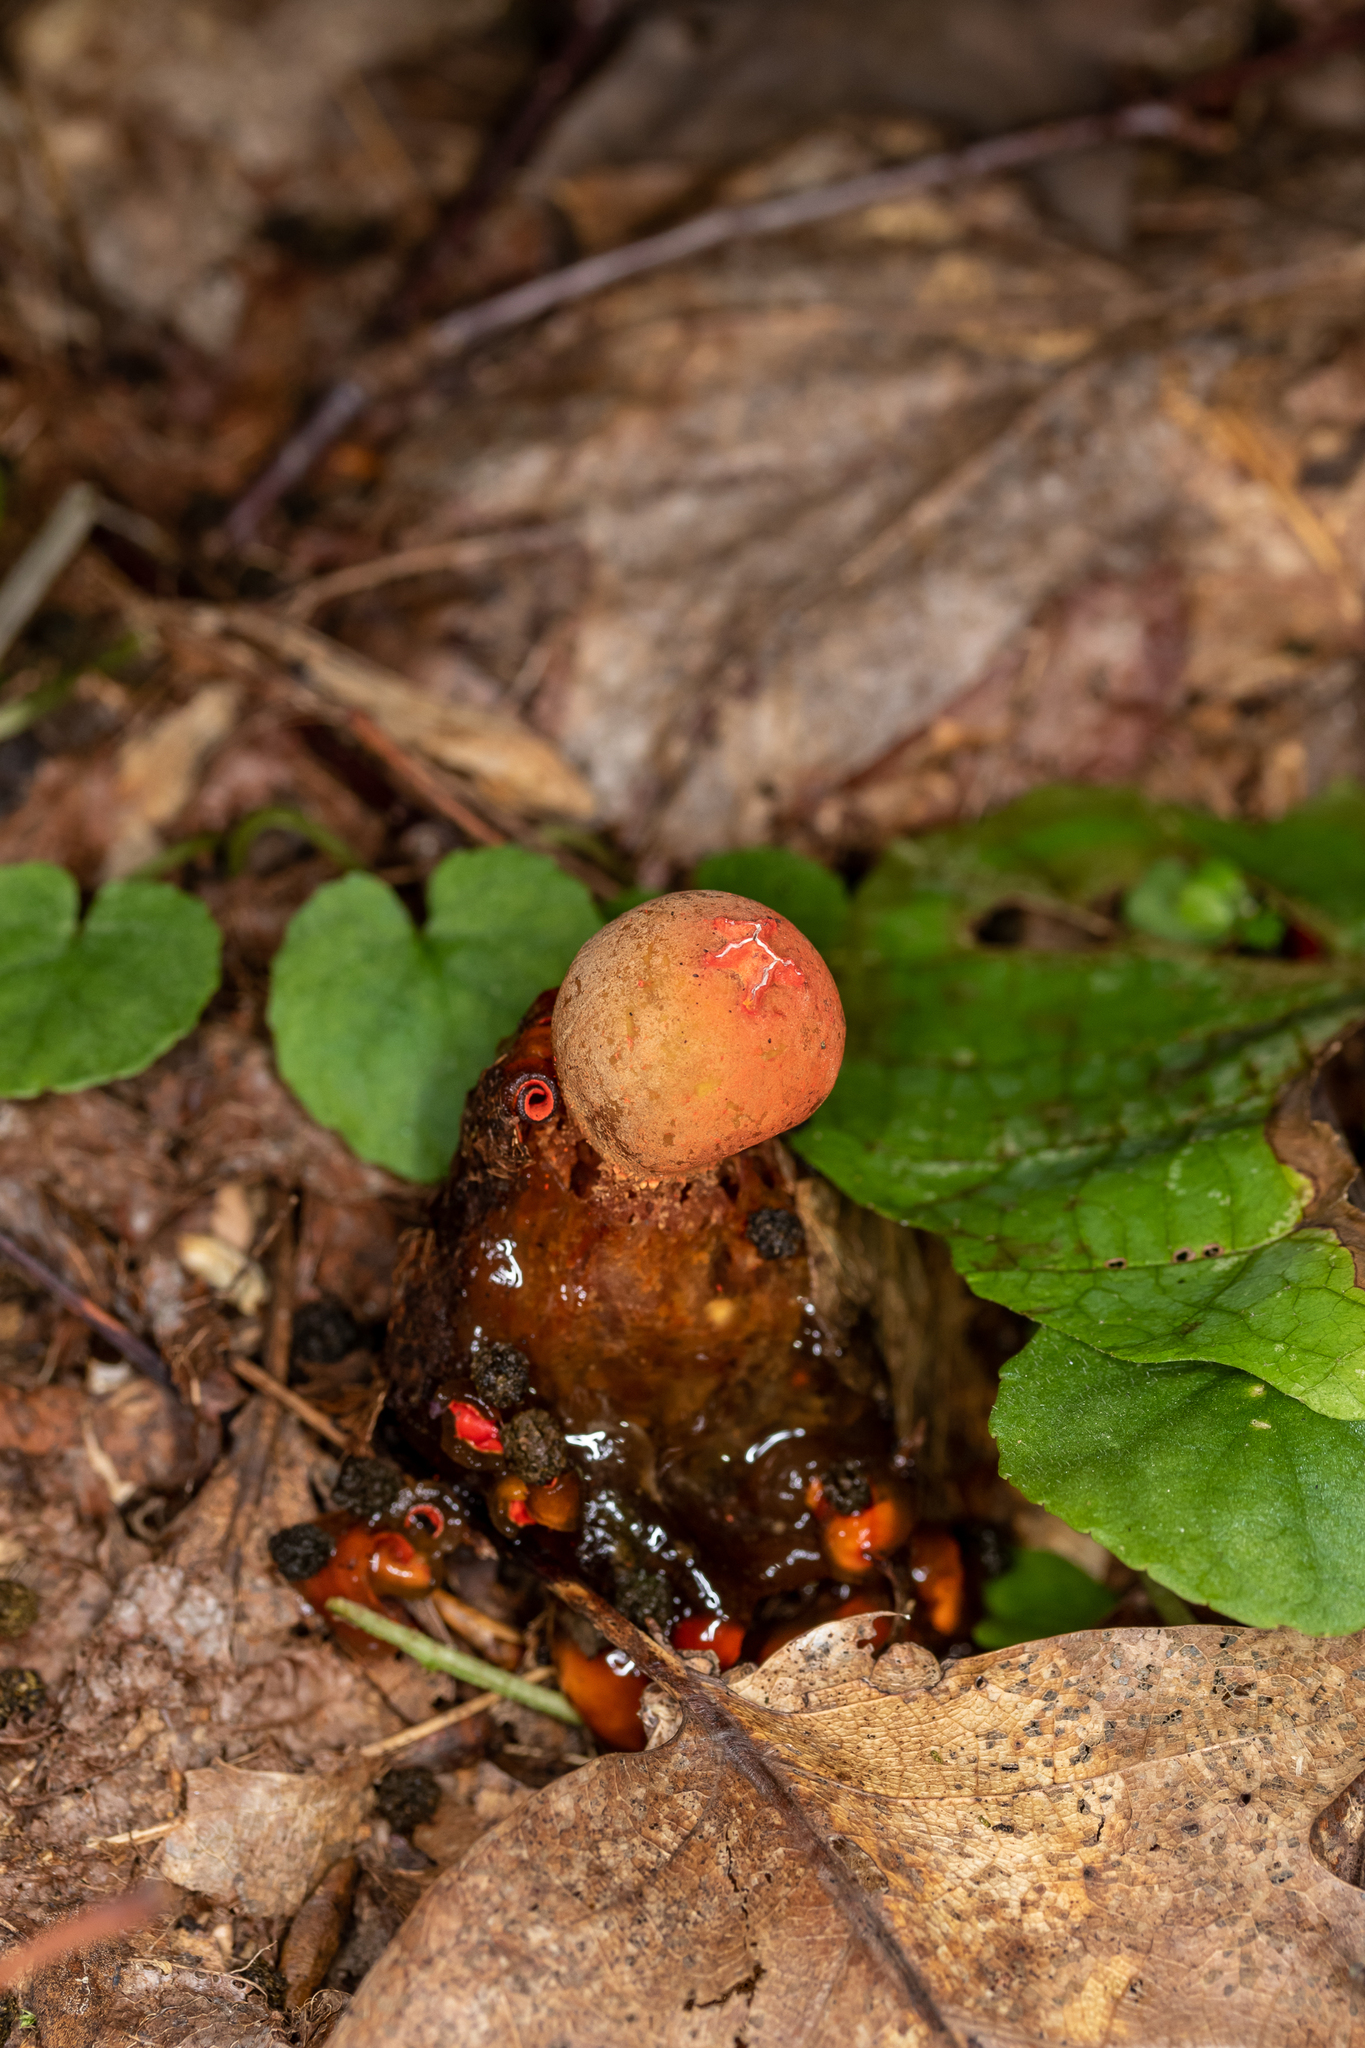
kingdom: Fungi
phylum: Basidiomycota
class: Agaricomycetes
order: Boletales
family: Calostomataceae
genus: Calostoma
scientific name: Calostoma cinnabarinum
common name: Stalked puffball-in-aspic
